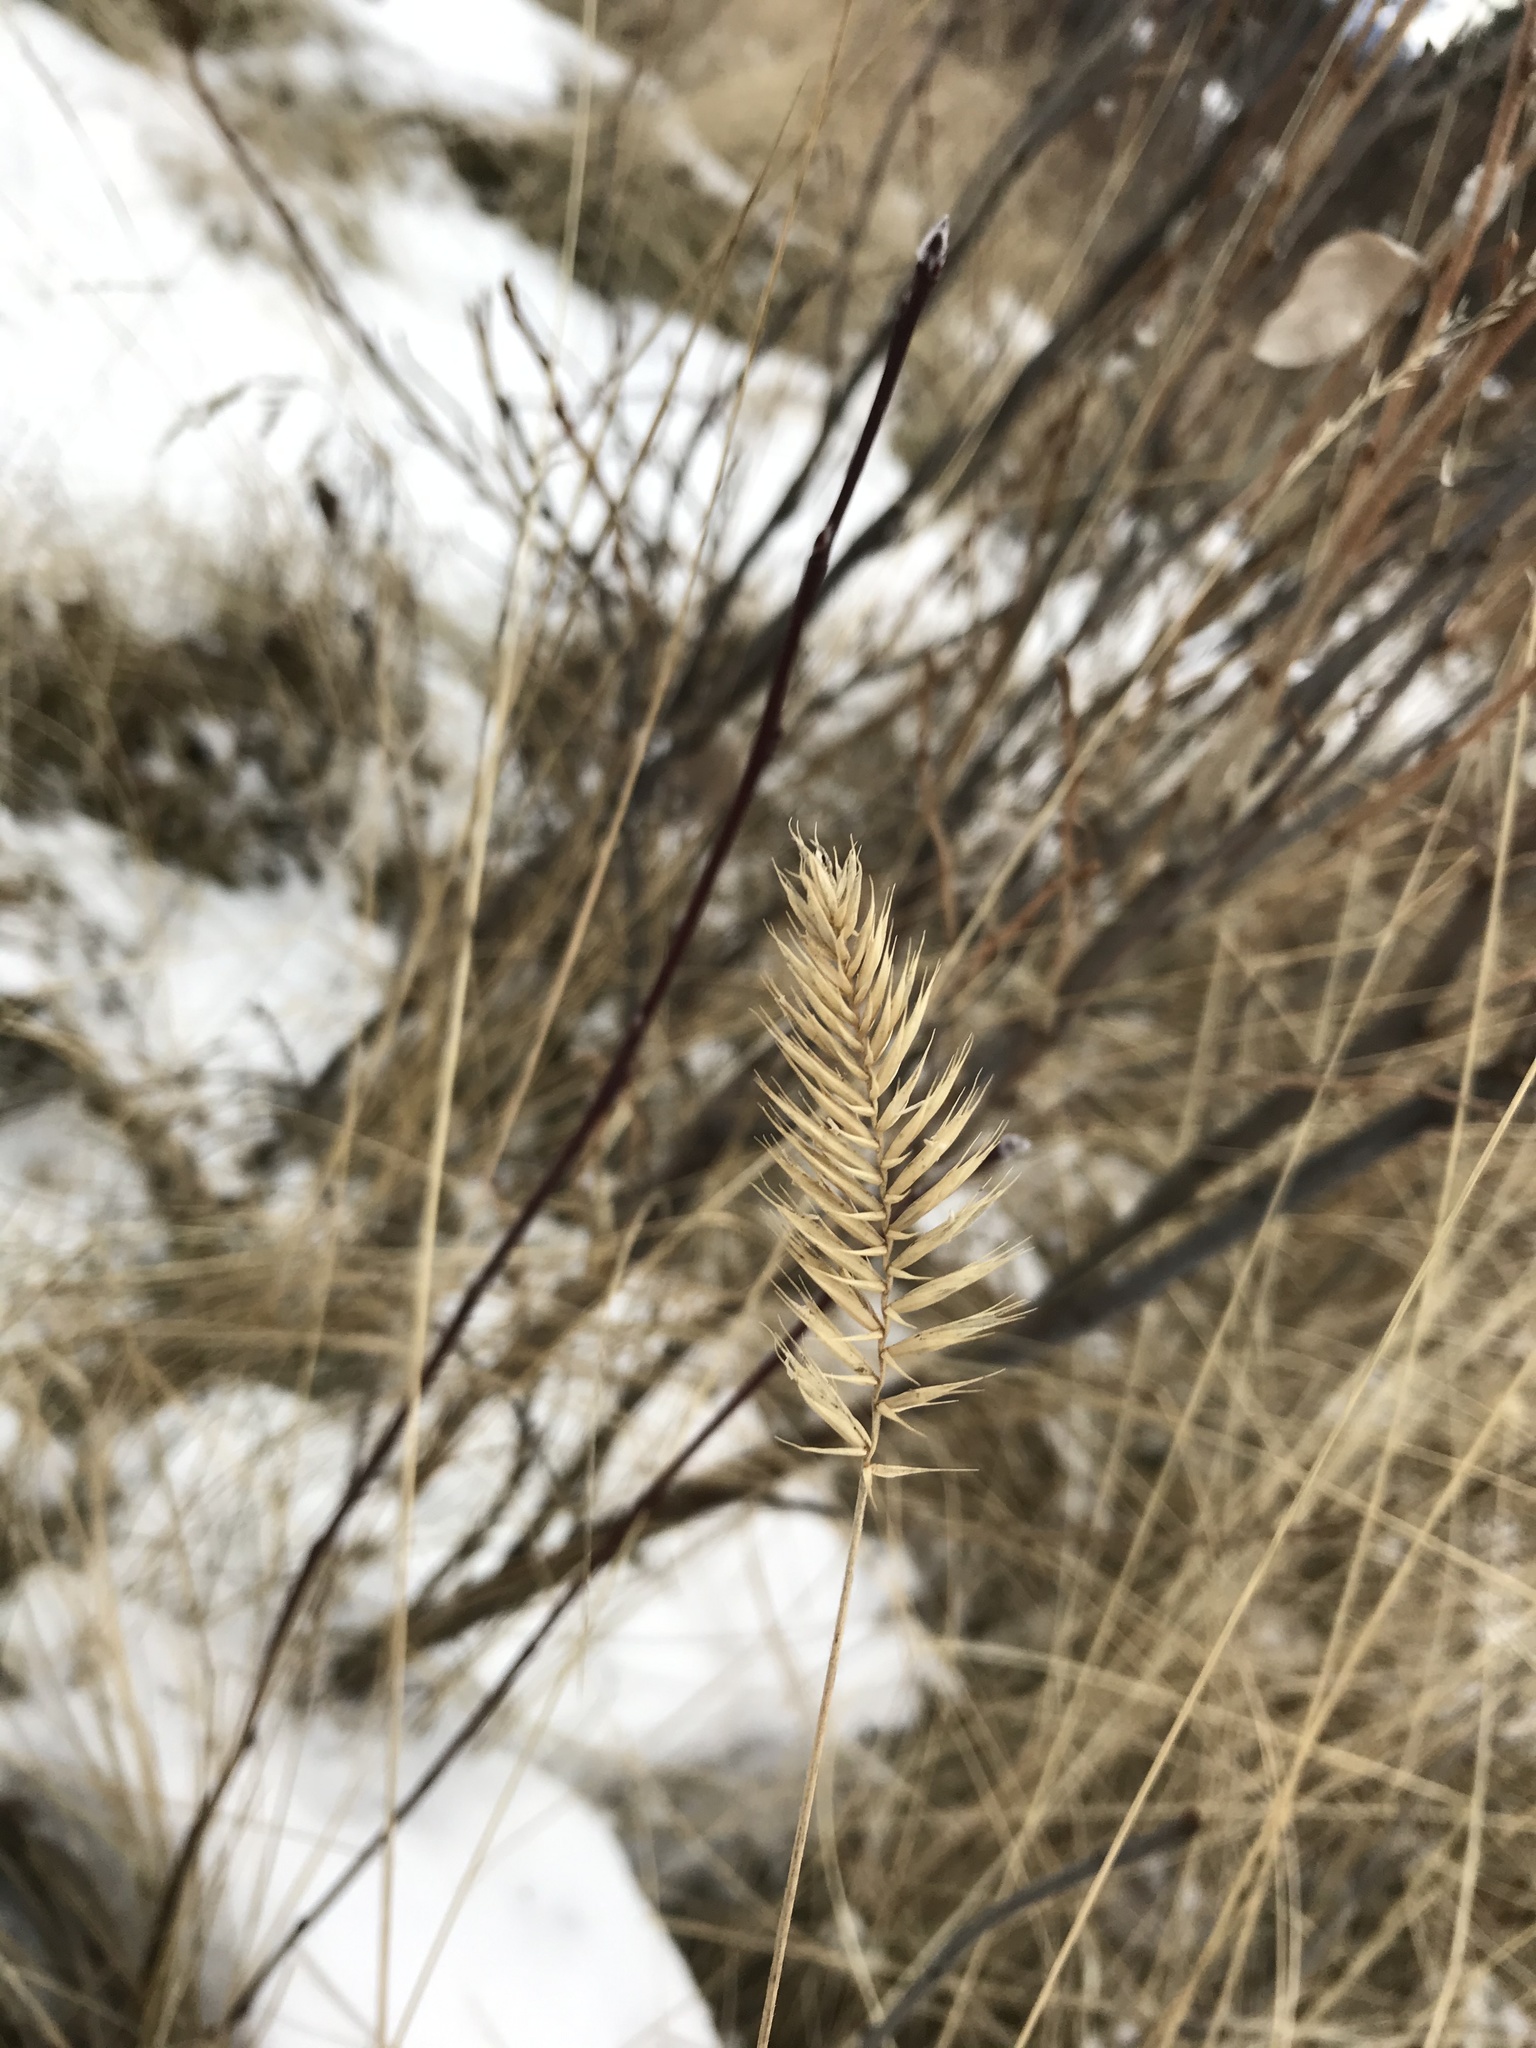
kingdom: Plantae
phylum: Tracheophyta
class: Liliopsida
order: Poales
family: Poaceae
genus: Agropyron
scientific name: Agropyron cristatum
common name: Crested wheatgrass
